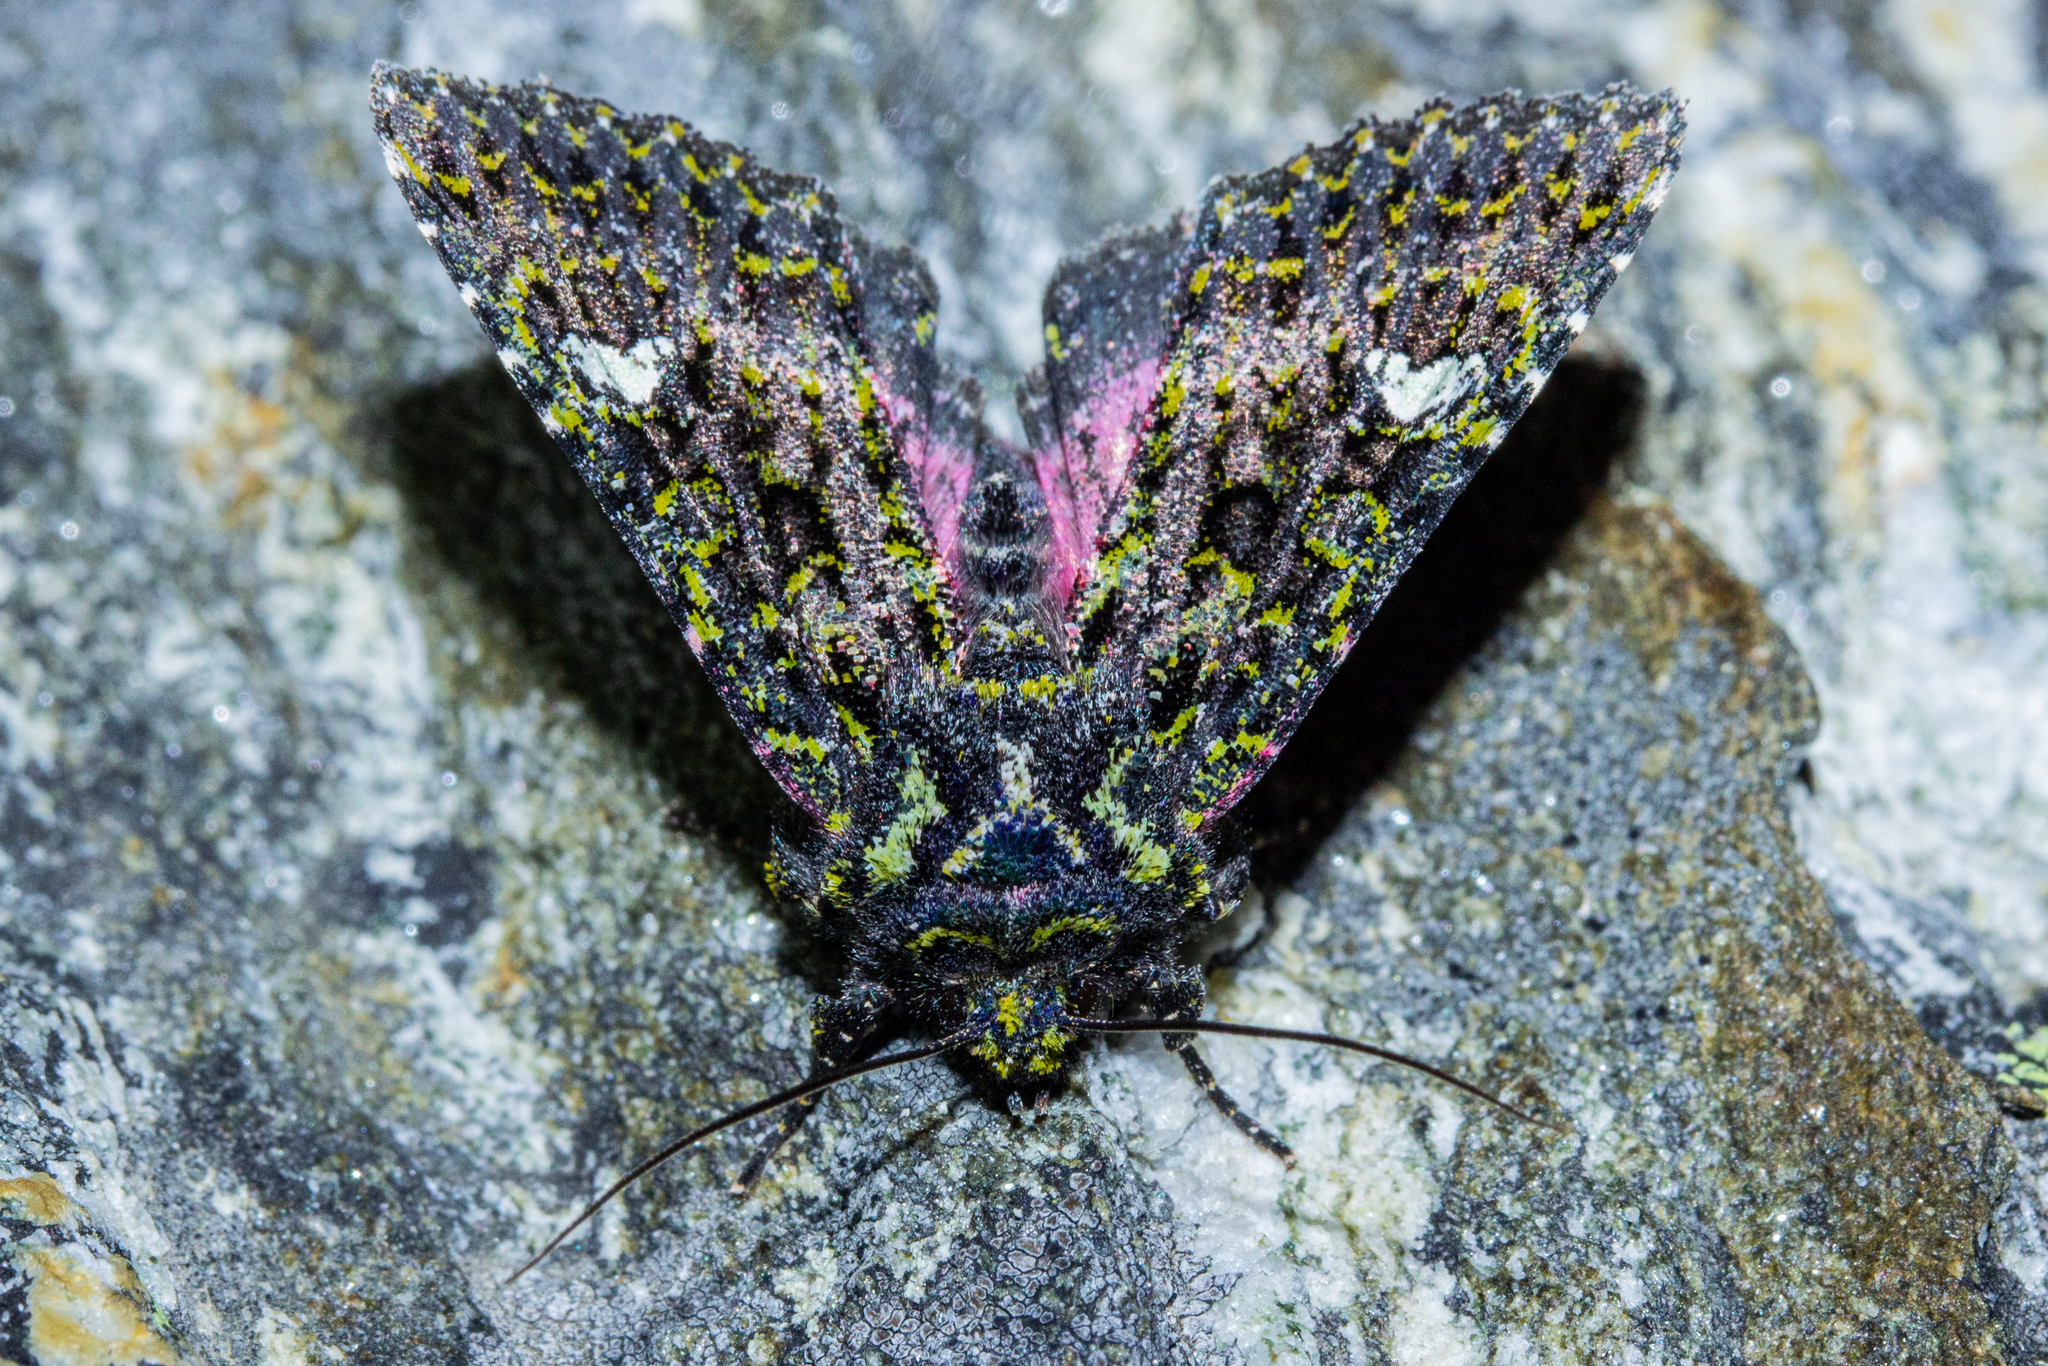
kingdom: Animalia
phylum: Arthropoda
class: Insecta
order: Lepidoptera
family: Noctuidae
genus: Meterana
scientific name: Meterana meyricci
